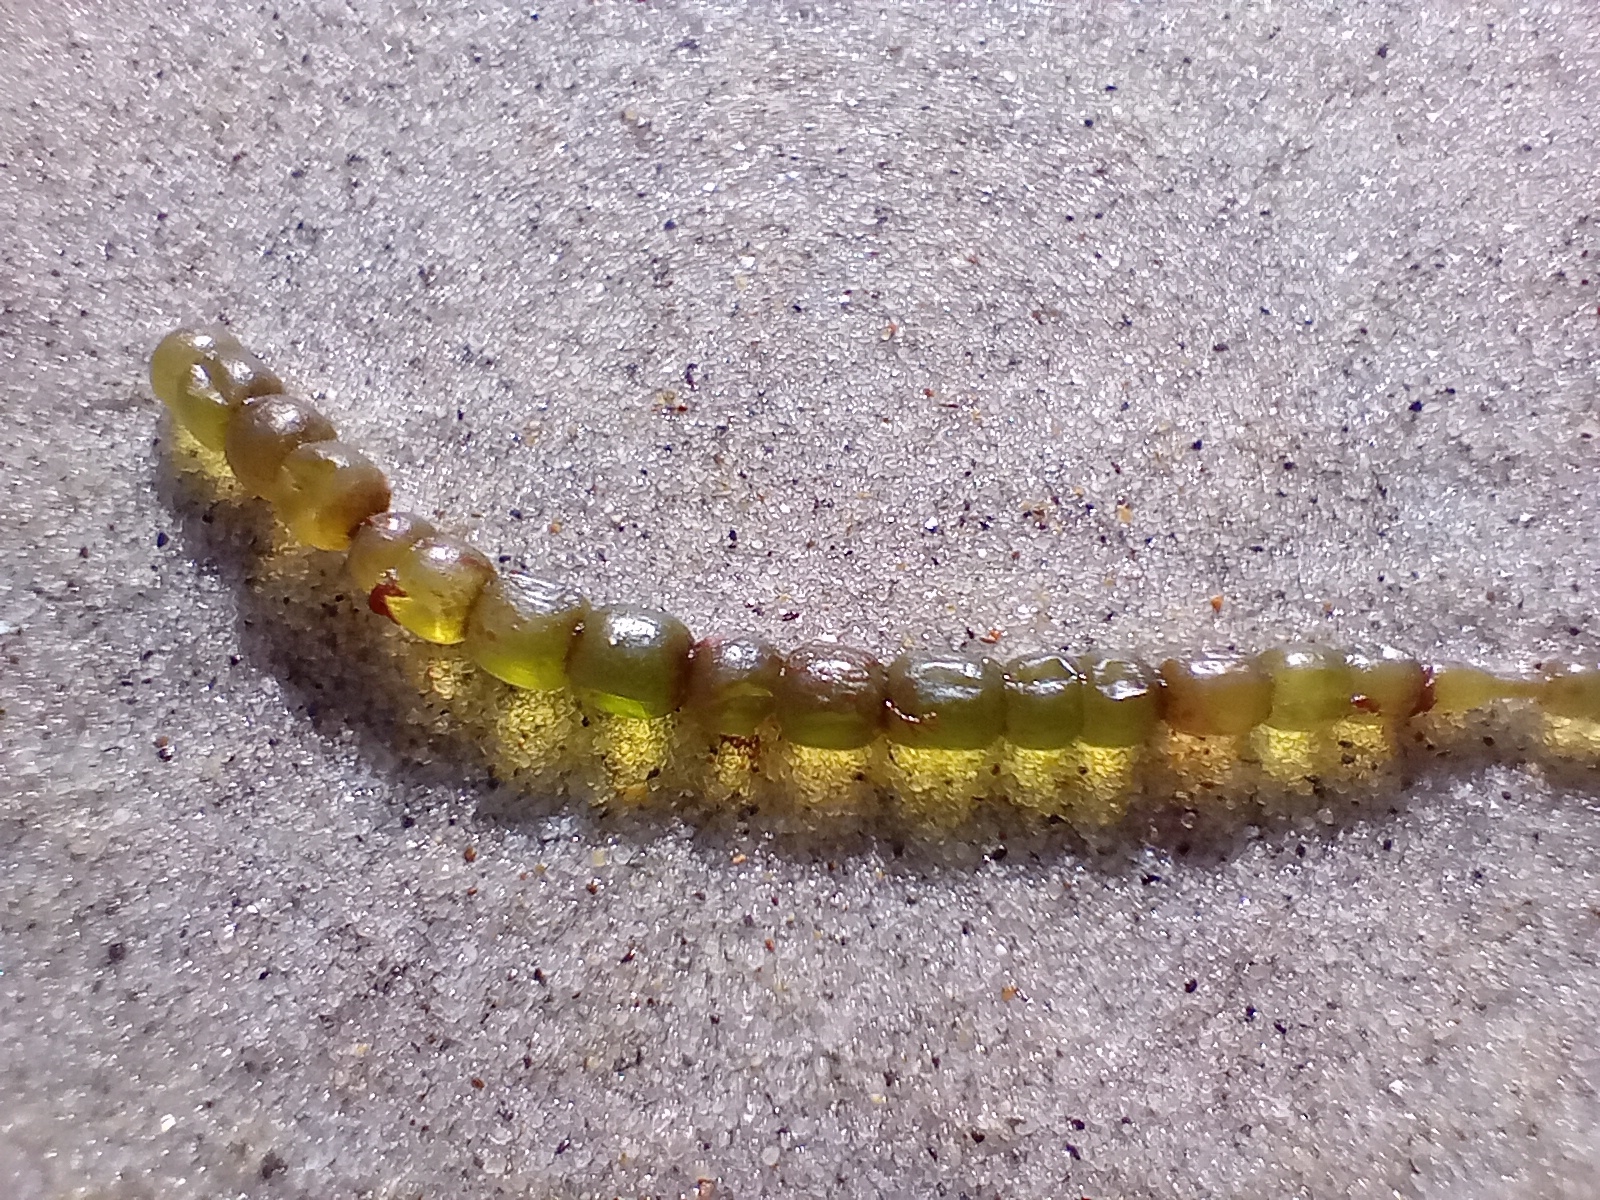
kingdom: Plantae
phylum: Chlorophyta
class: Ulvophyceae
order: Cladophorales
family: Cladophoraceae
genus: Chaetomorpha
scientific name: Chaetomorpha coliformis
